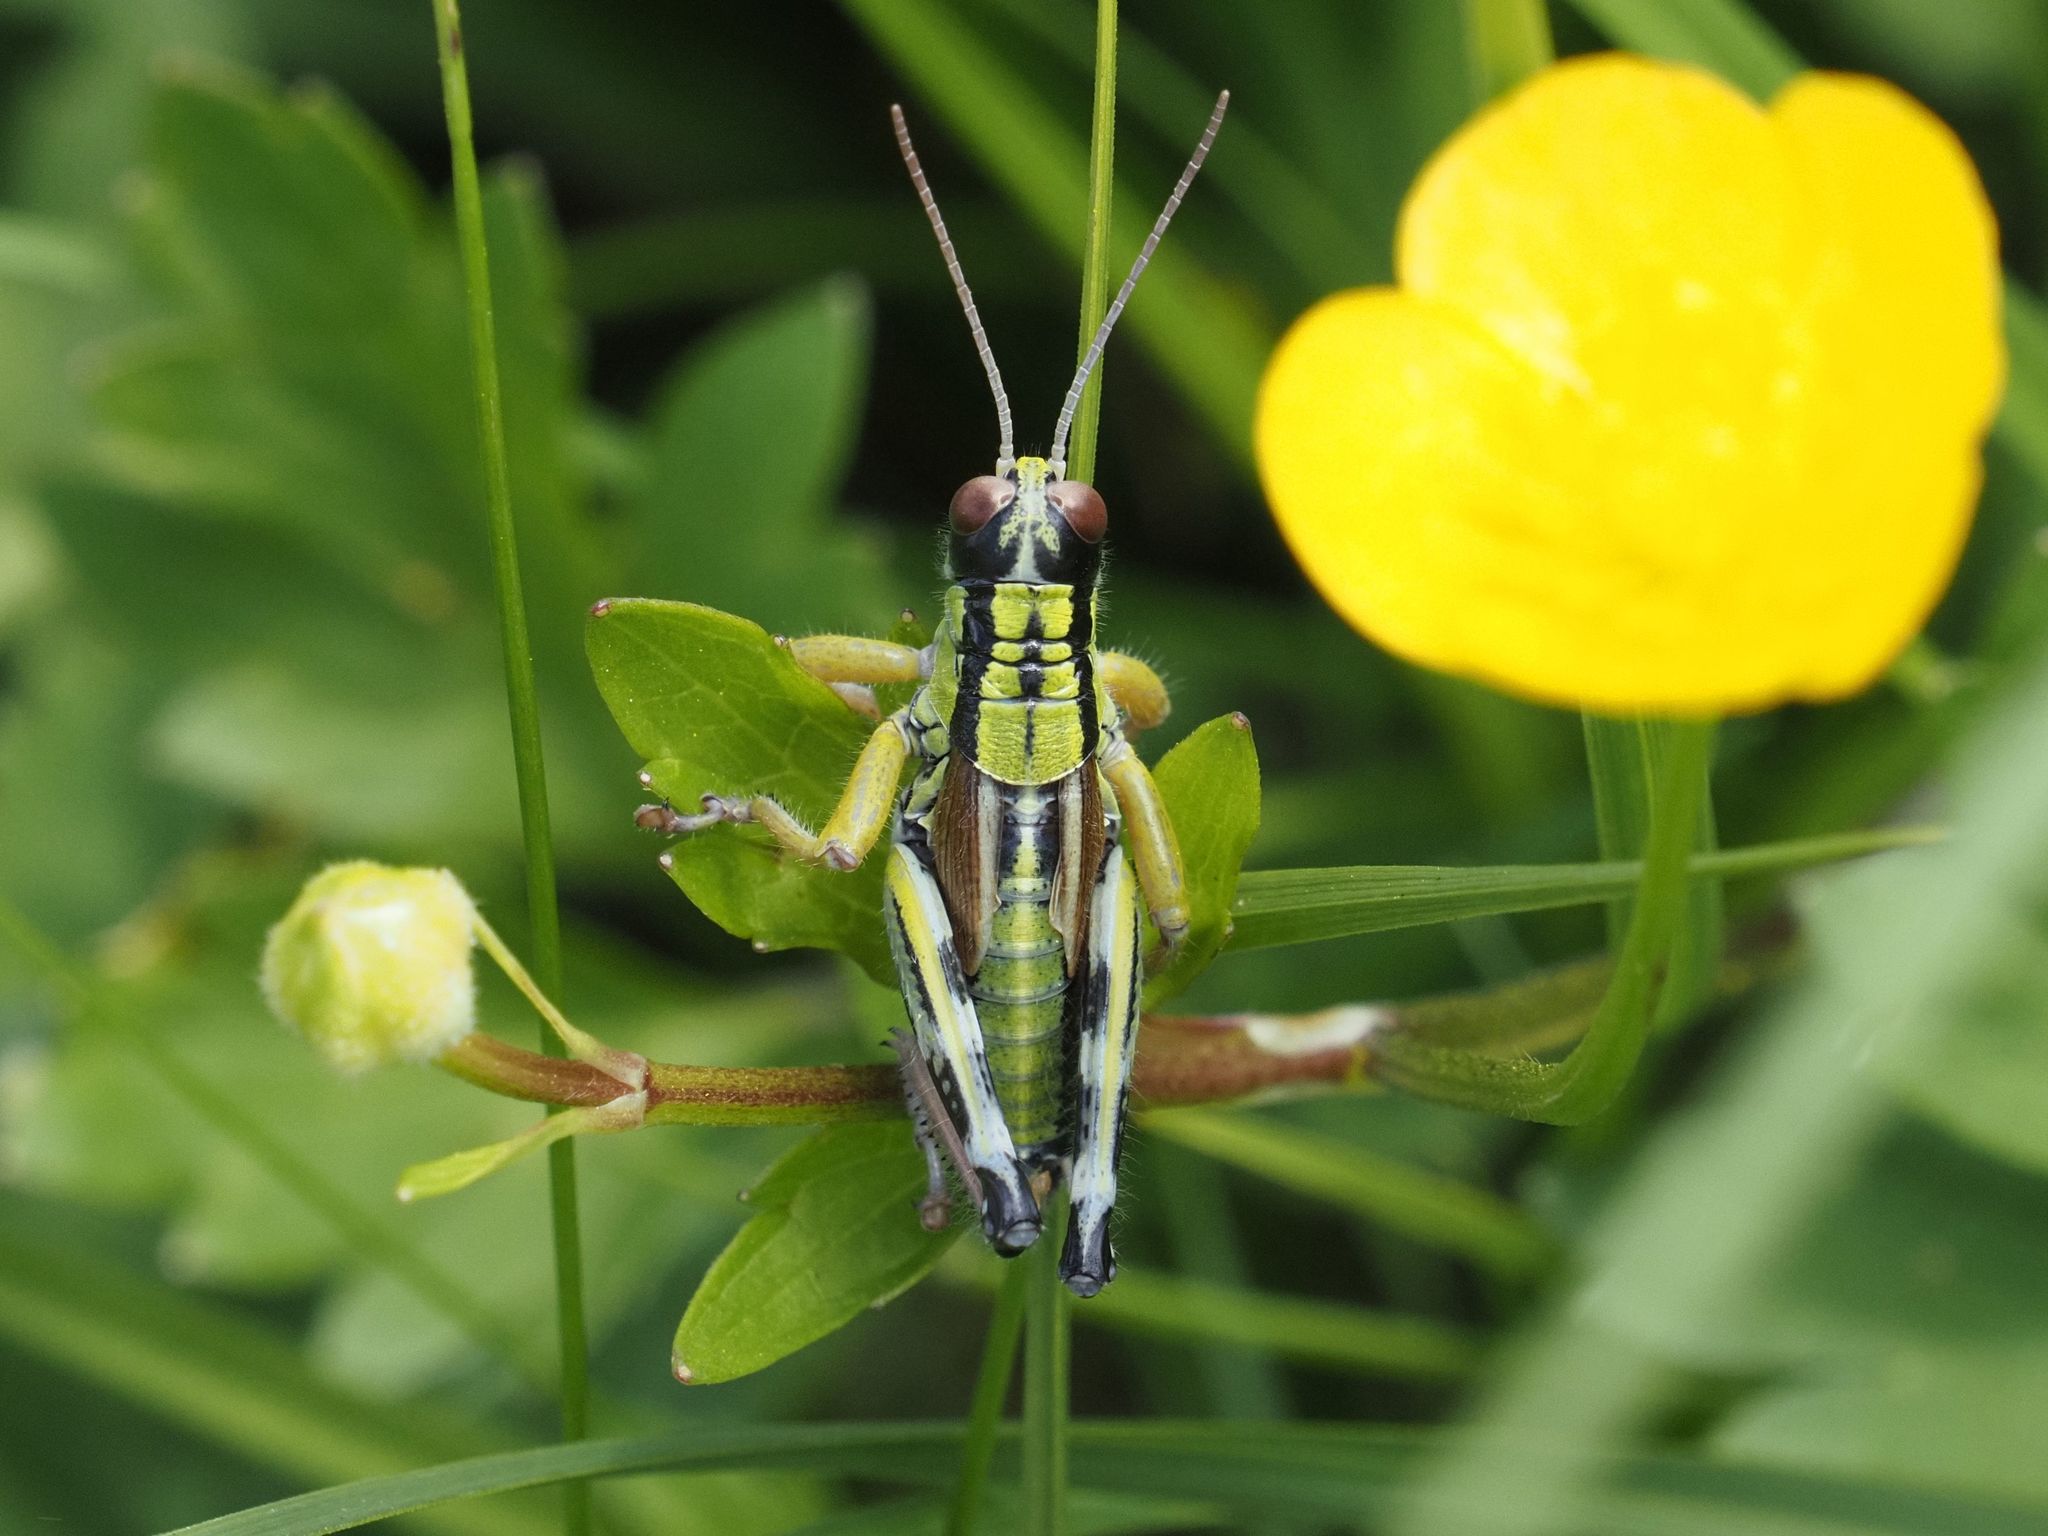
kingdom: Animalia
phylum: Arthropoda
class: Insecta
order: Orthoptera
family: Acrididae
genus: Miramella
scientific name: Miramella alpina
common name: Green mountain grasshopper
